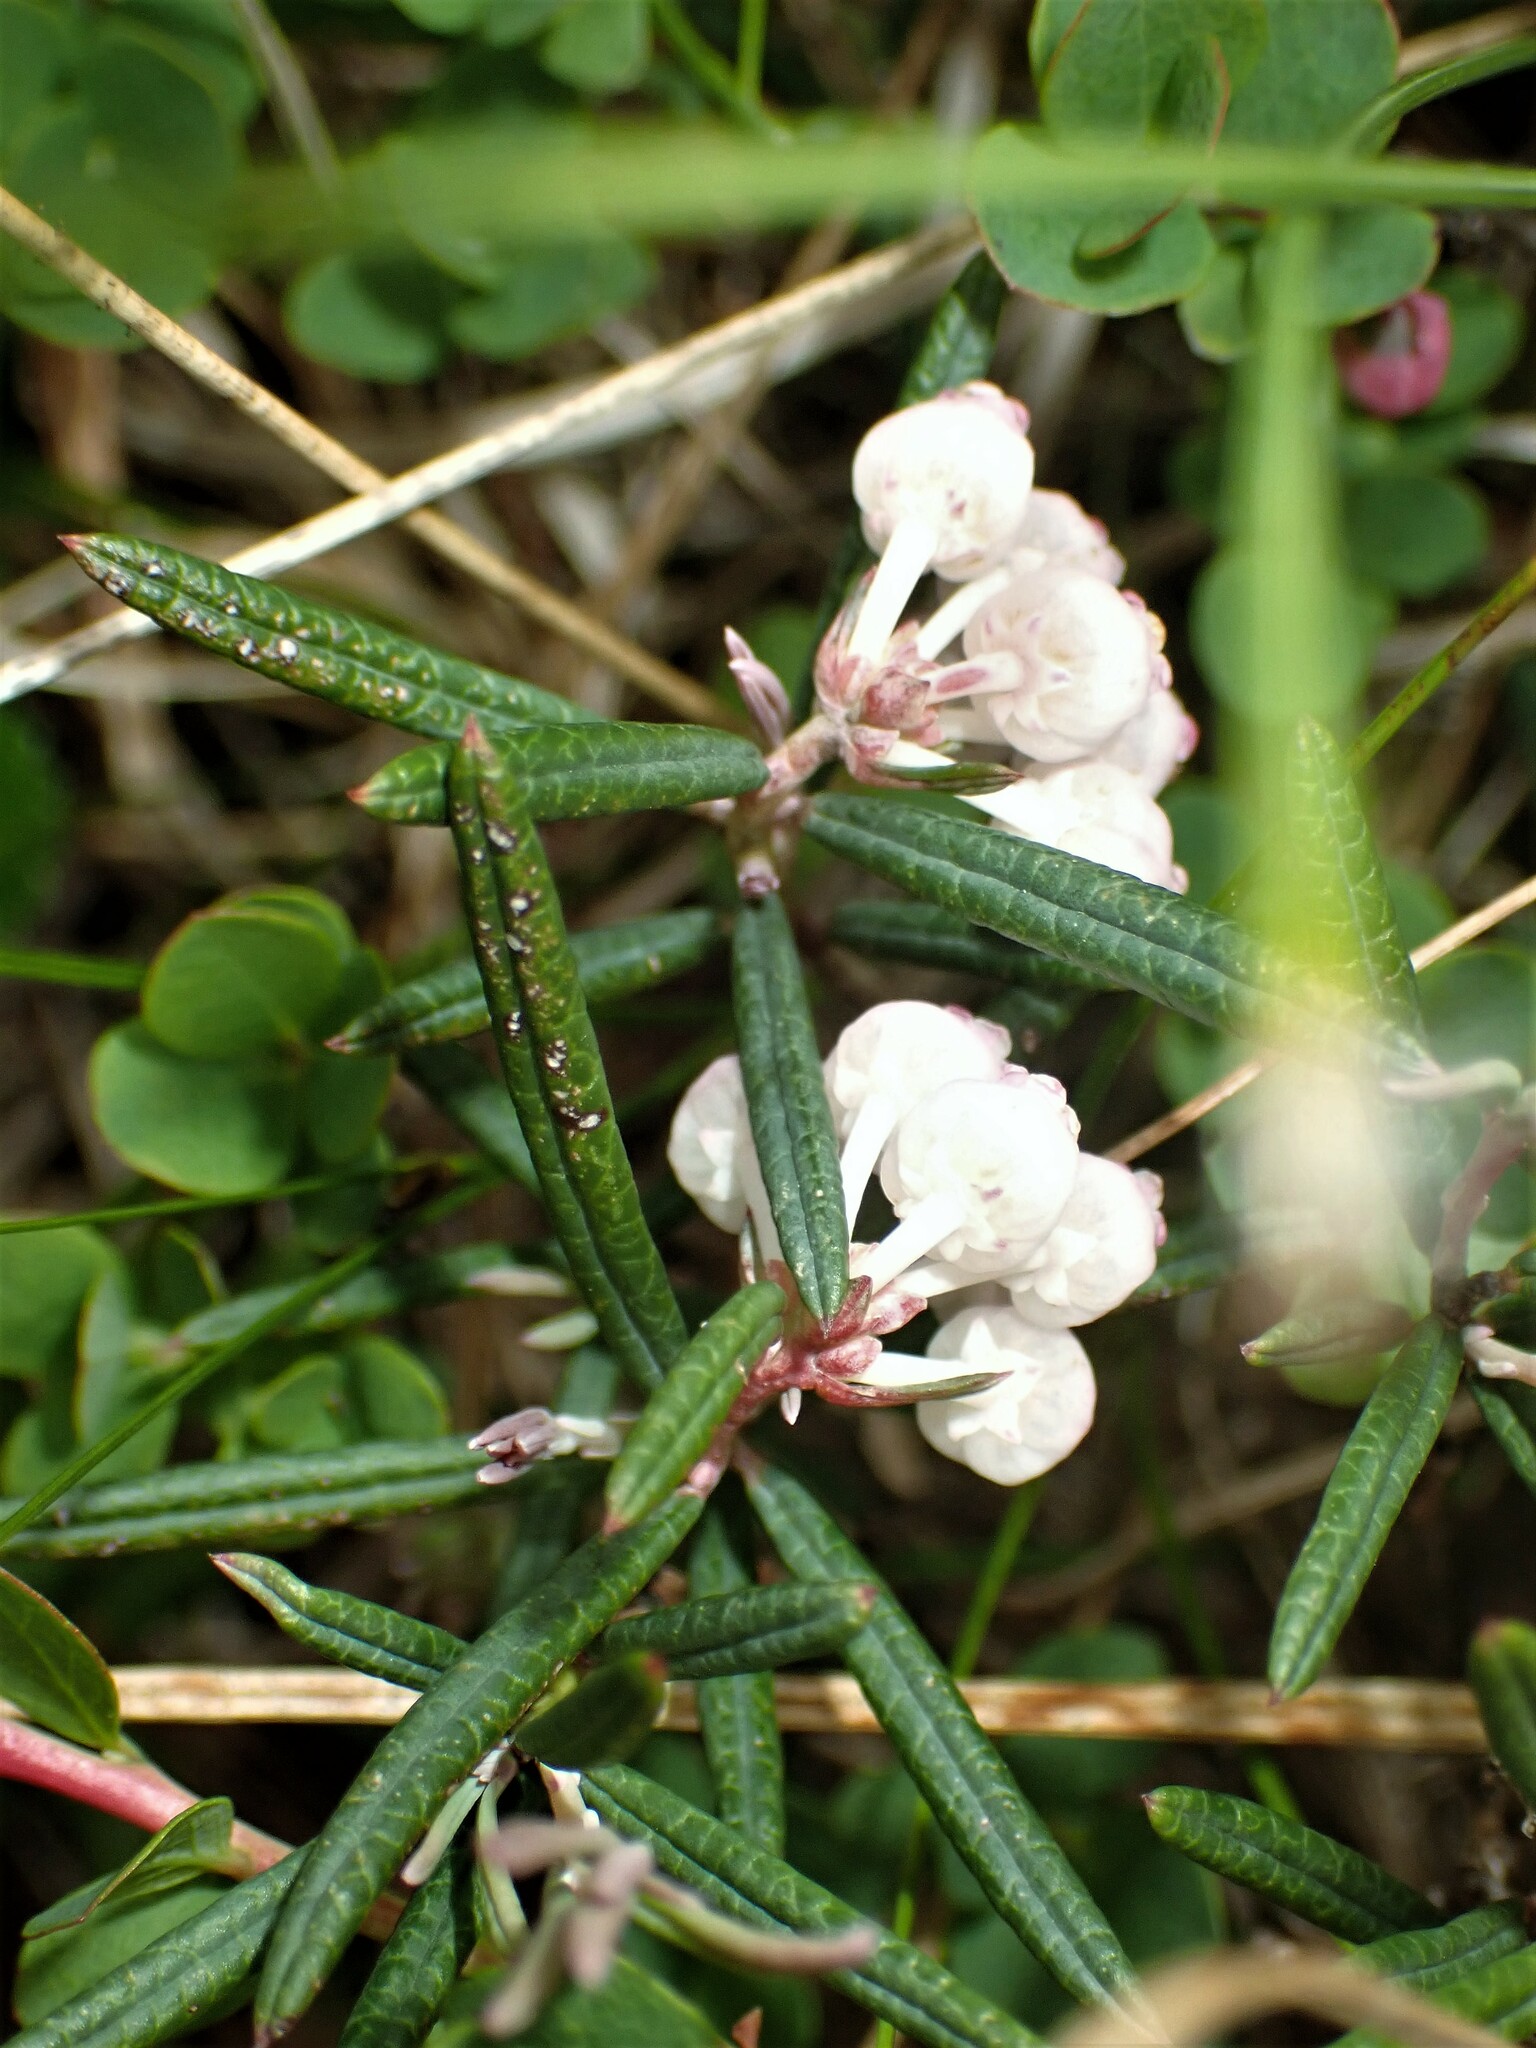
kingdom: Plantae
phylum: Tracheophyta
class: Magnoliopsida
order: Ericales
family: Ericaceae
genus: Andromeda
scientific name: Andromeda polifolia
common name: Bog-rosemary
